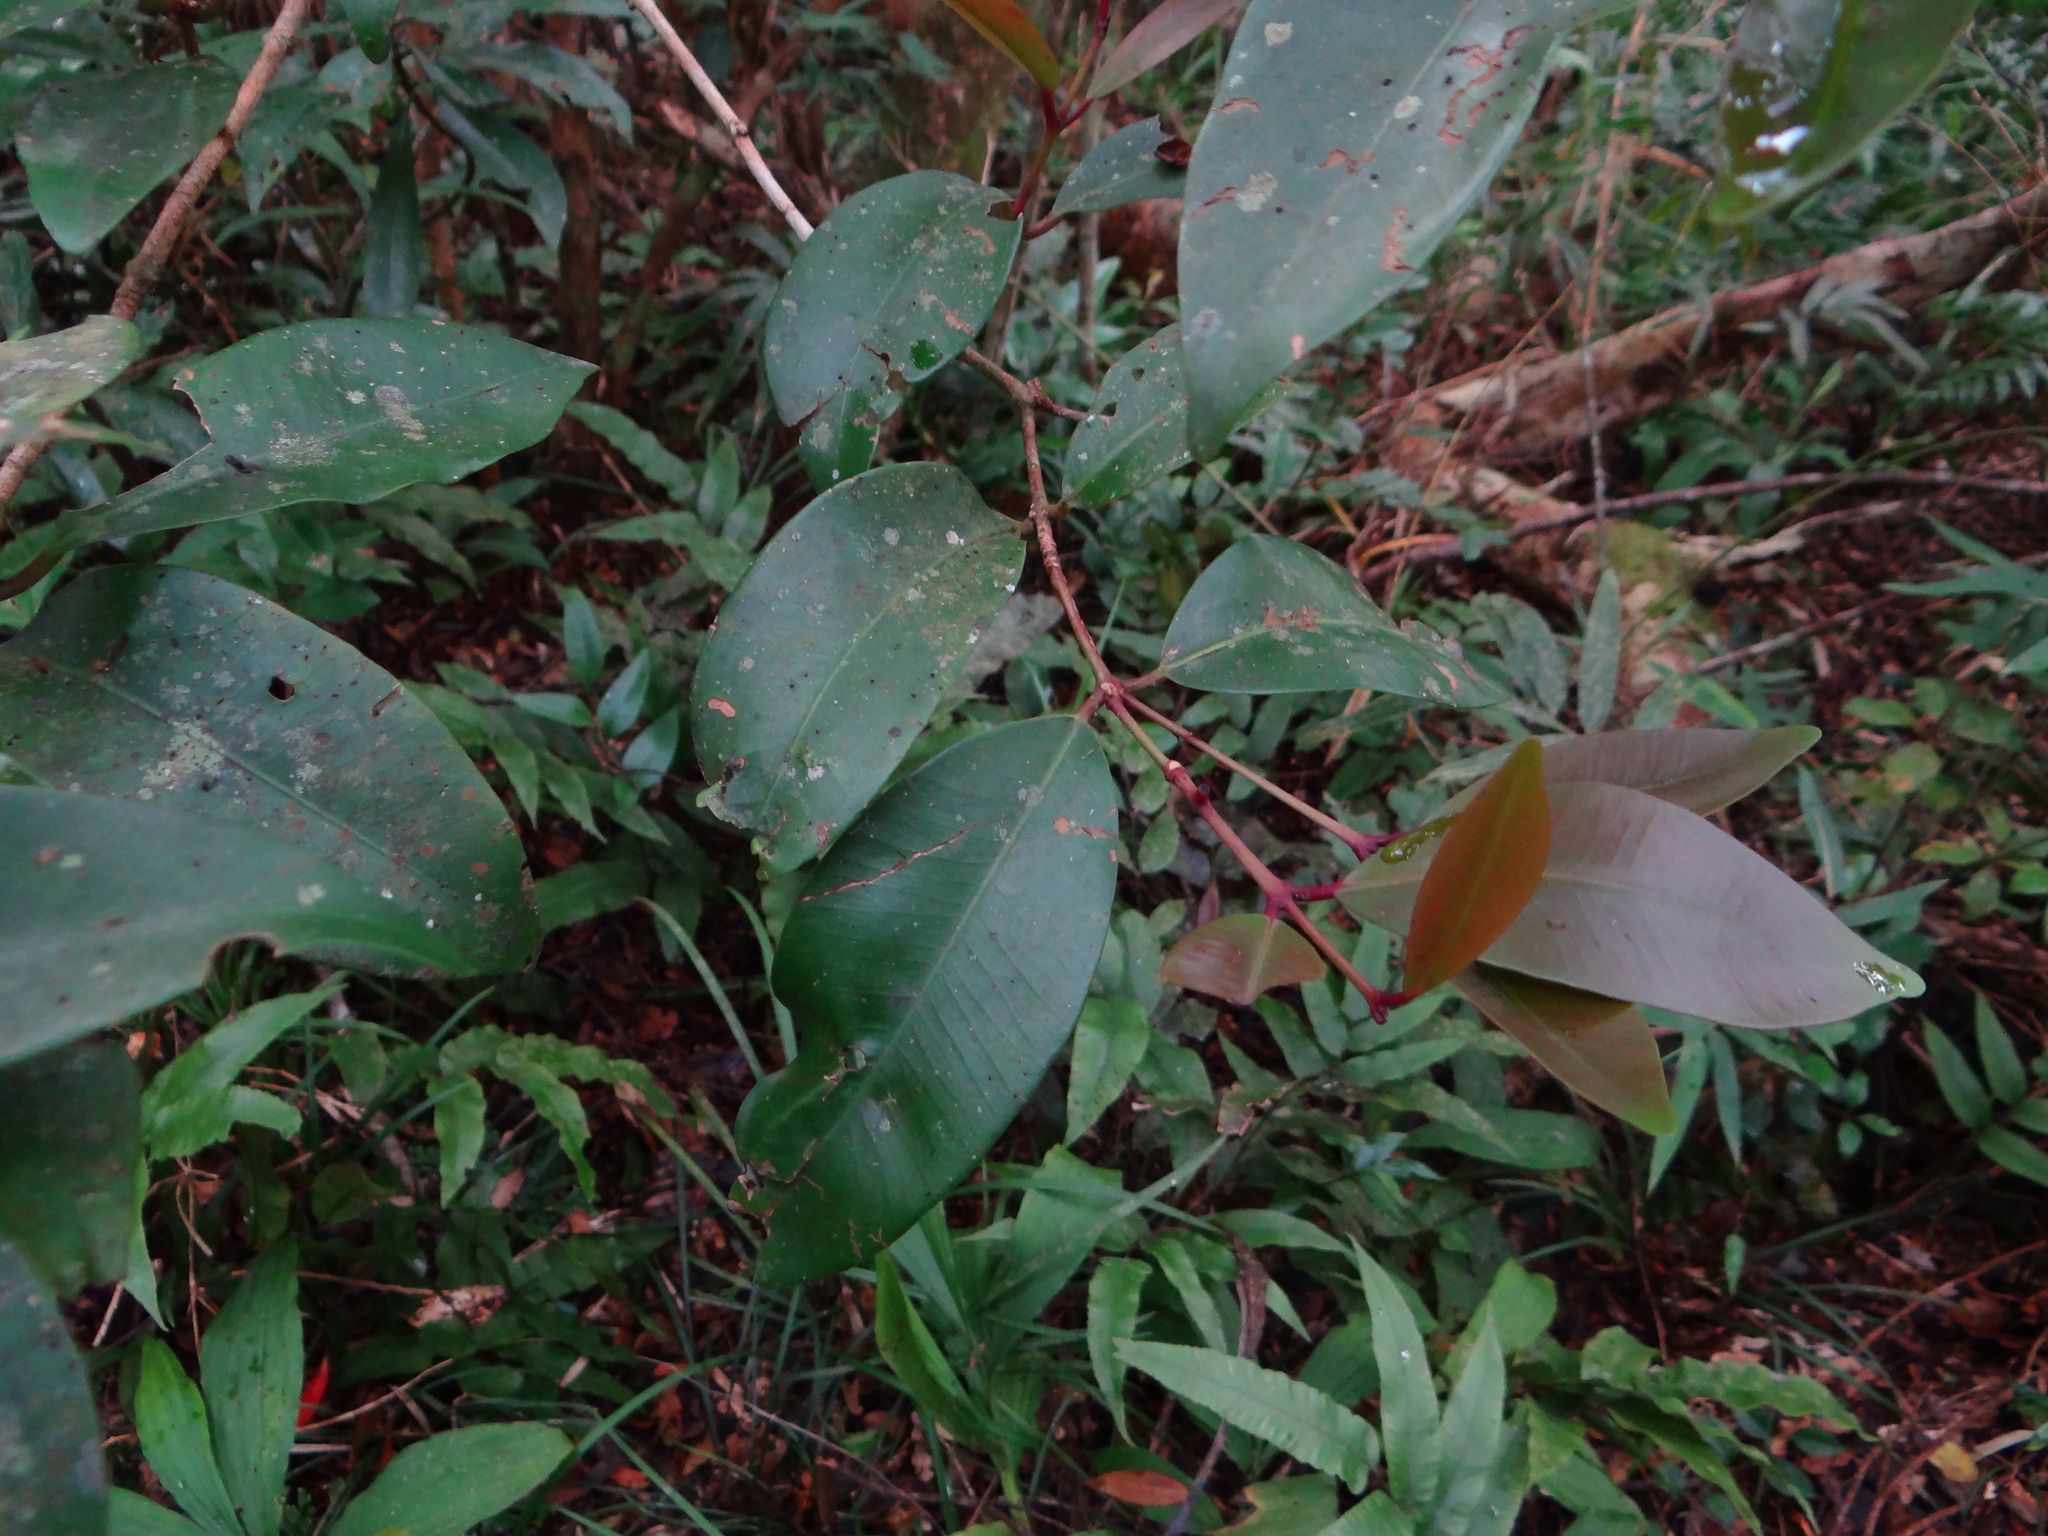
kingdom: Plantae
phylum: Tracheophyta
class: Magnoliopsida
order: Myrtales
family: Myrtaceae
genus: Syzygium
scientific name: Syzygium kusukusense
